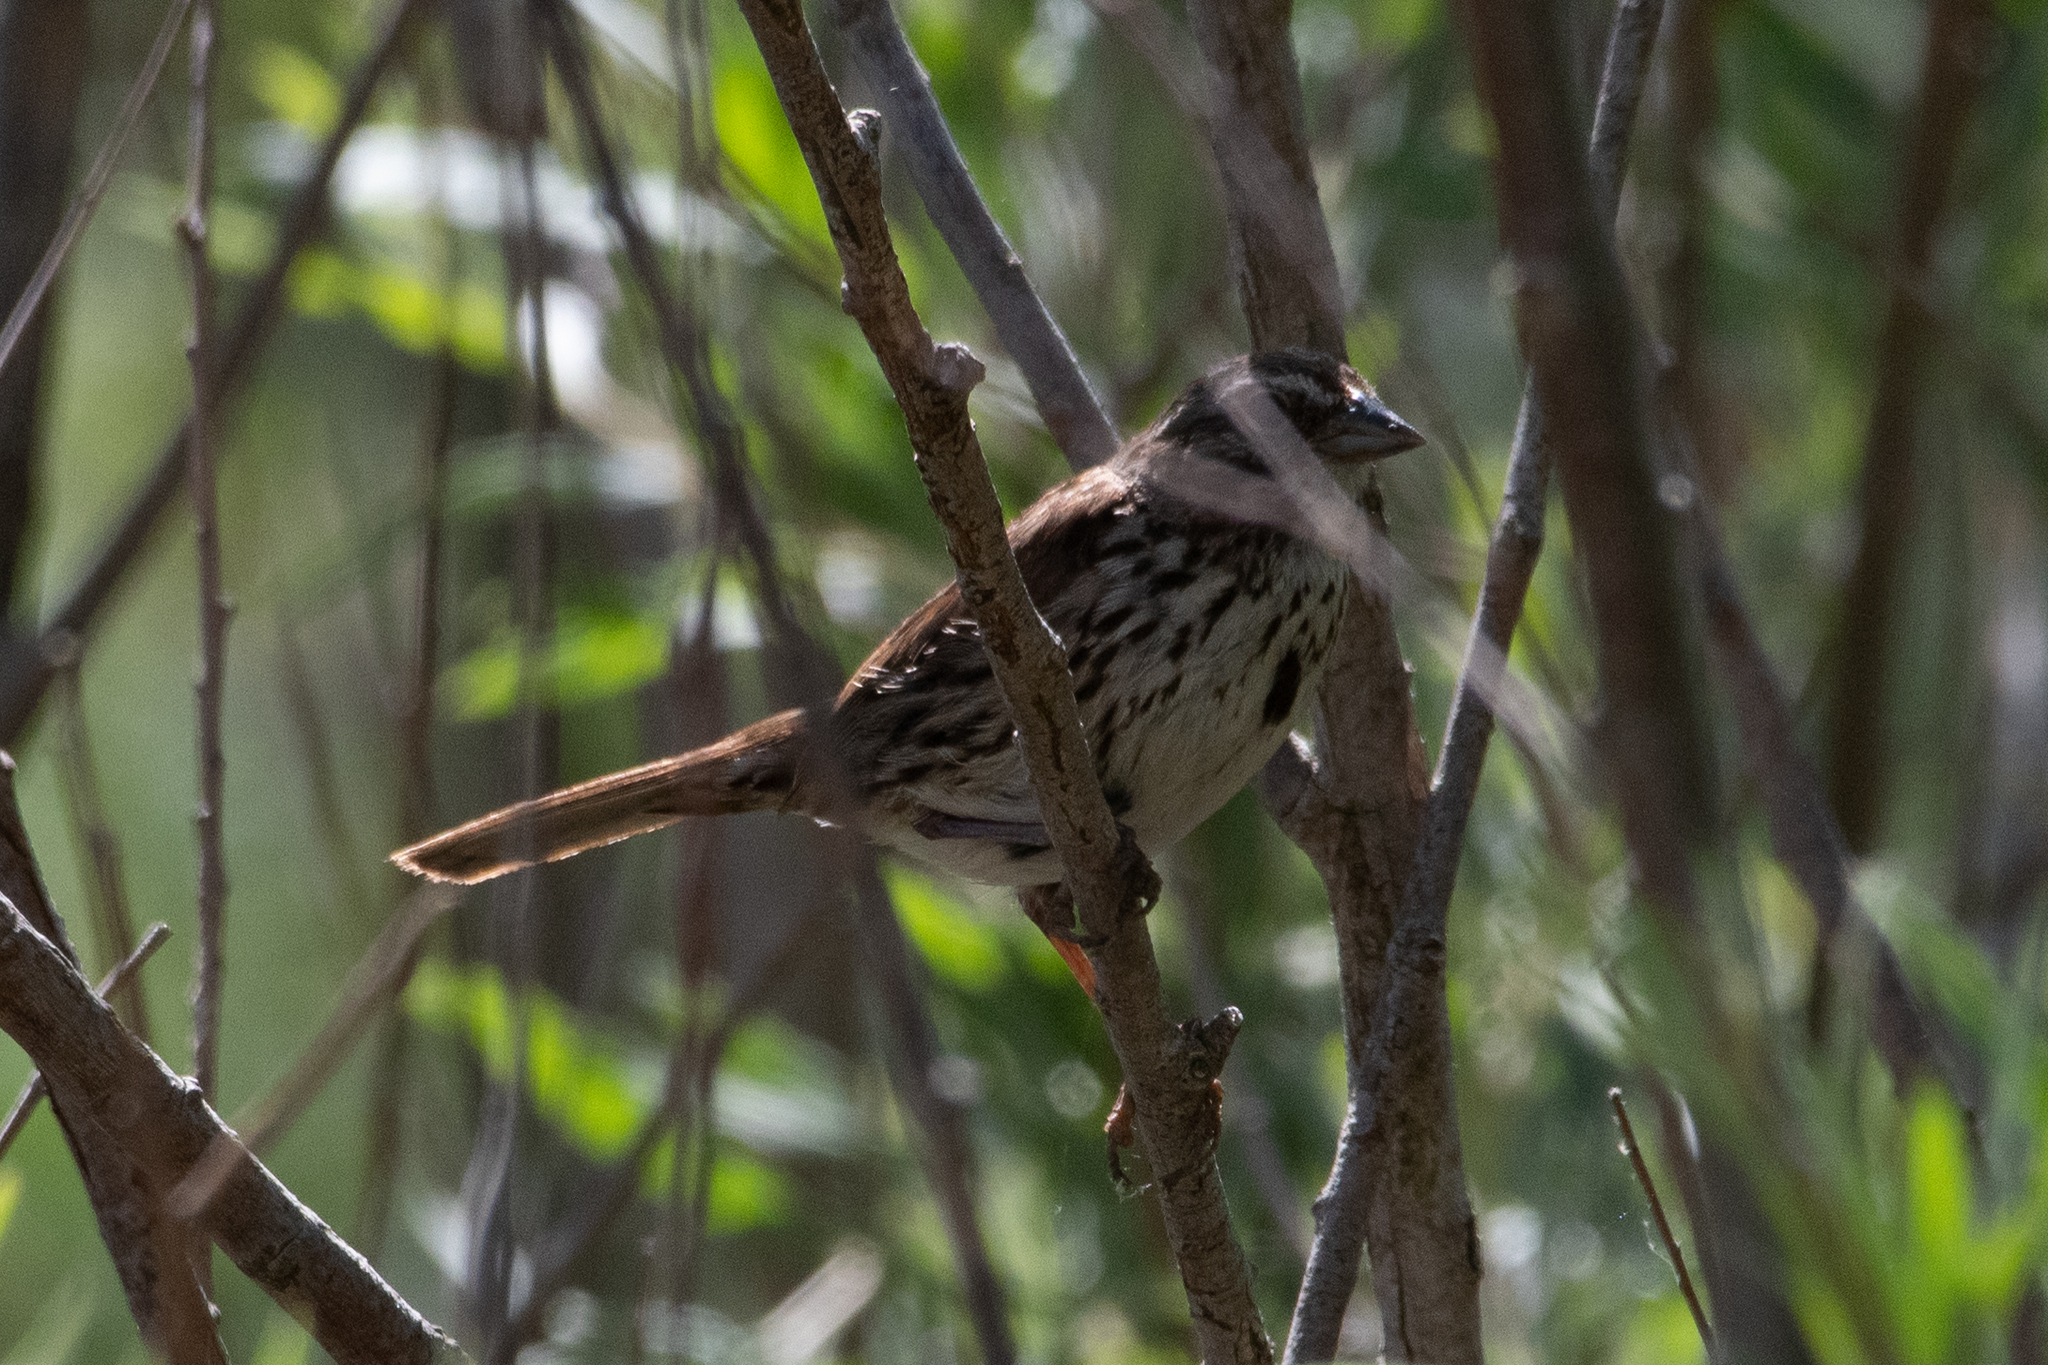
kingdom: Animalia
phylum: Chordata
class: Aves
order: Passeriformes
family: Passerellidae
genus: Melospiza
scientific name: Melospiza melodia
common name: Song sparrow
